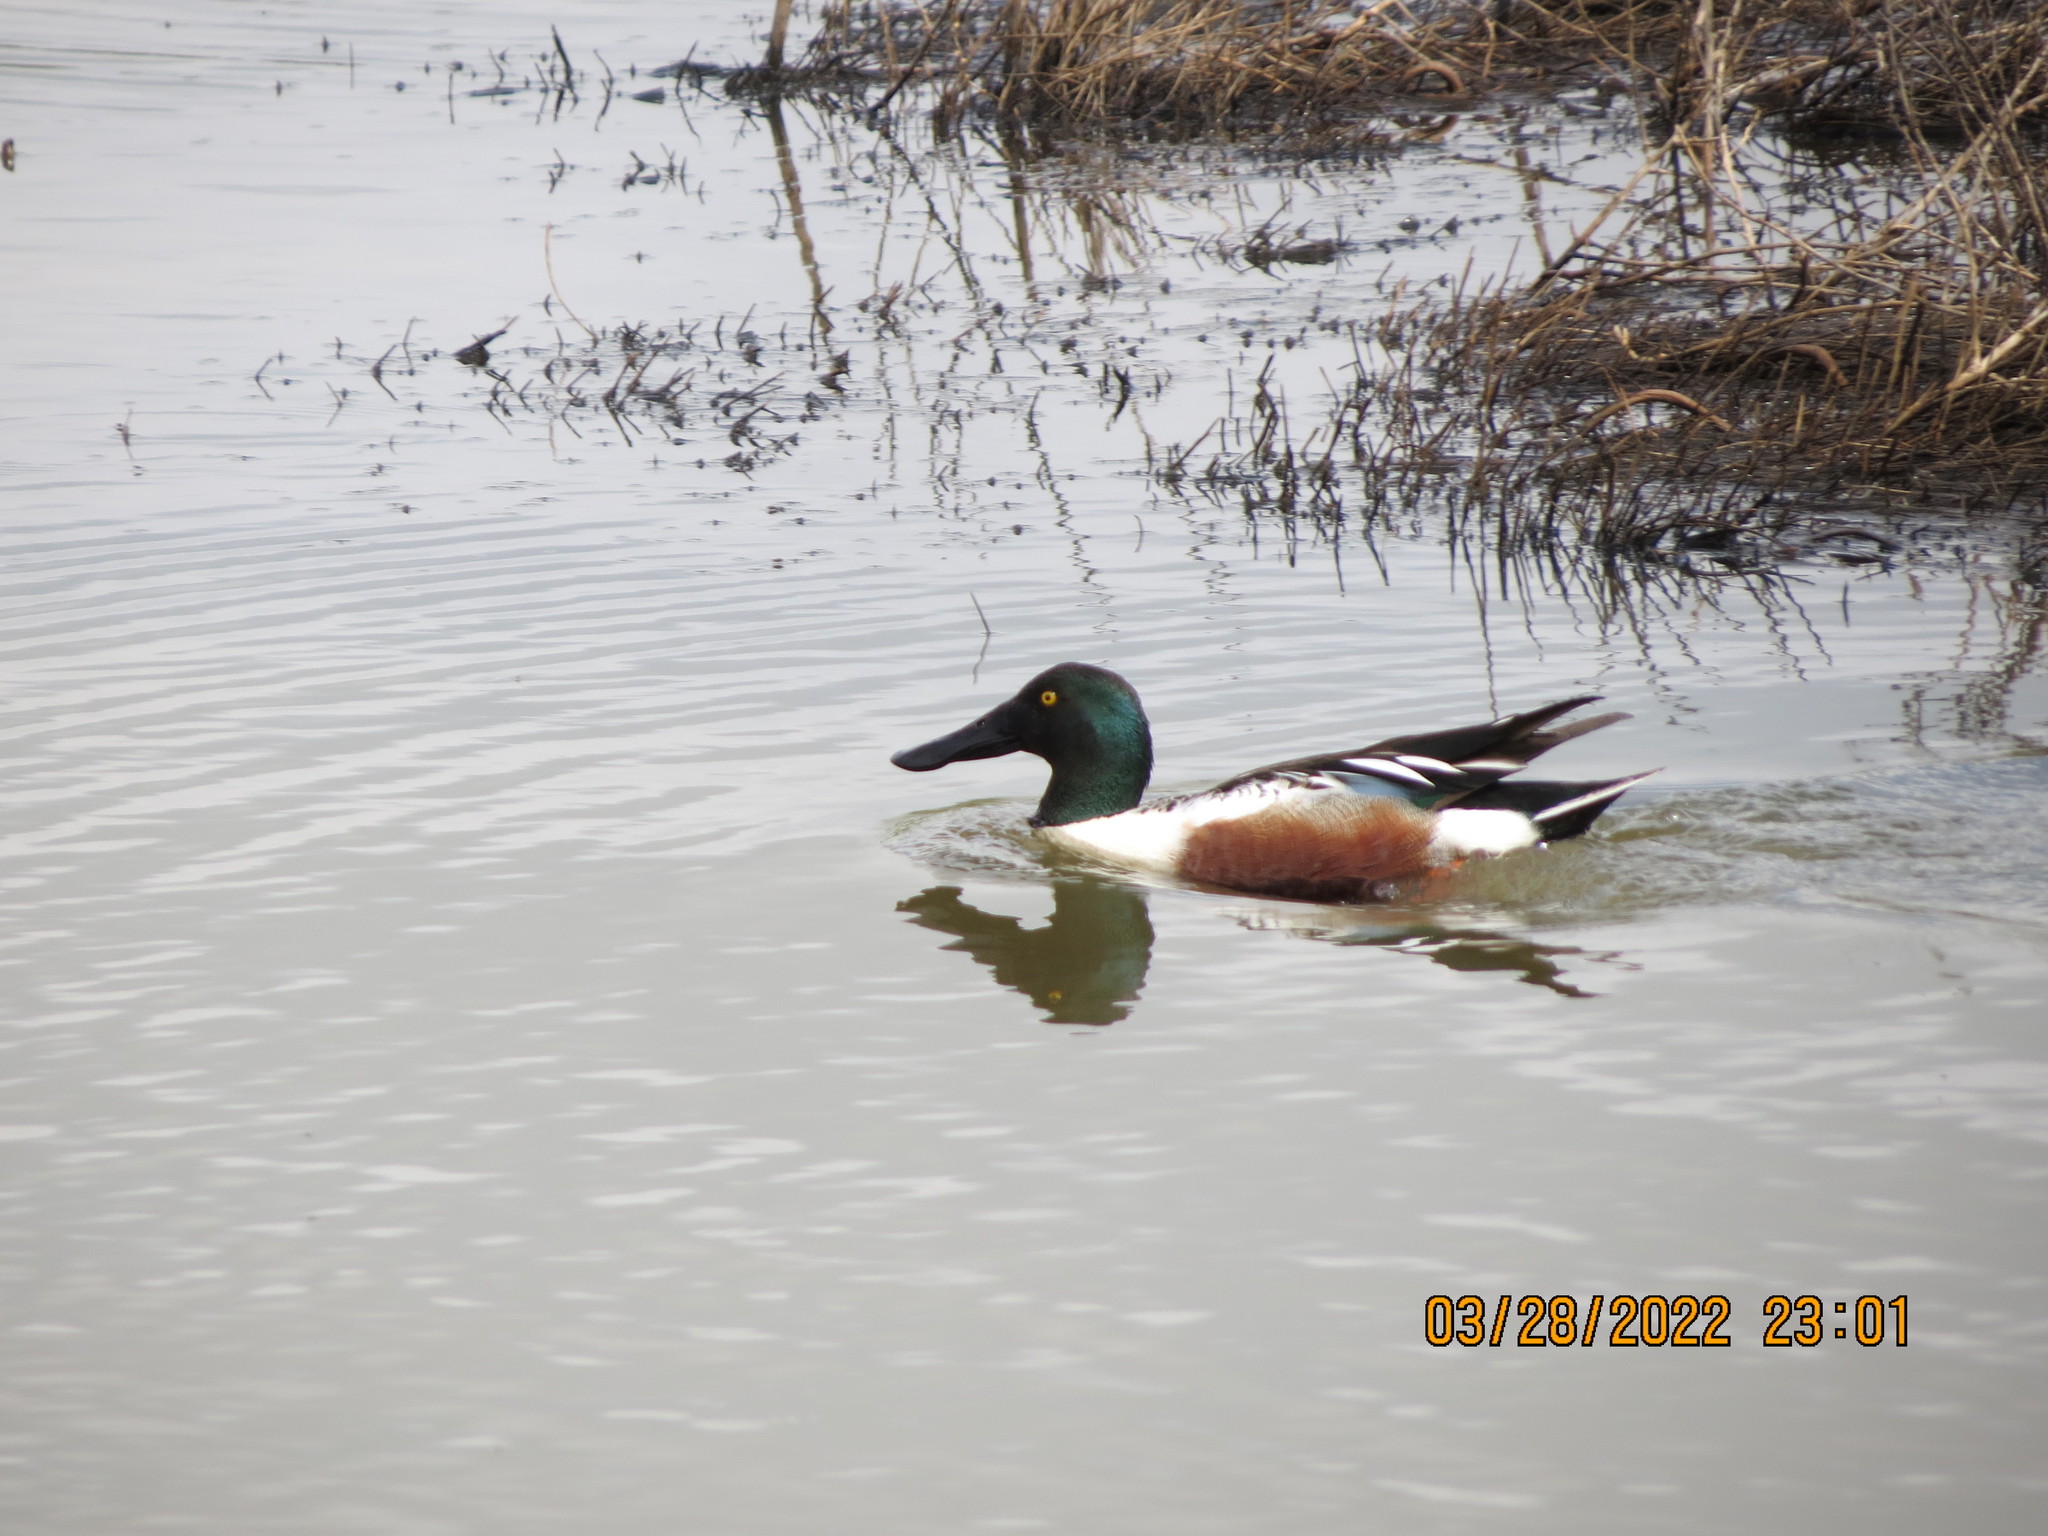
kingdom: Animalia
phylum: Chordata
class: Aves
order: Anseriformes
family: Anatidae
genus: Spatula
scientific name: Spatula clypeata
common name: Northern shoveler
